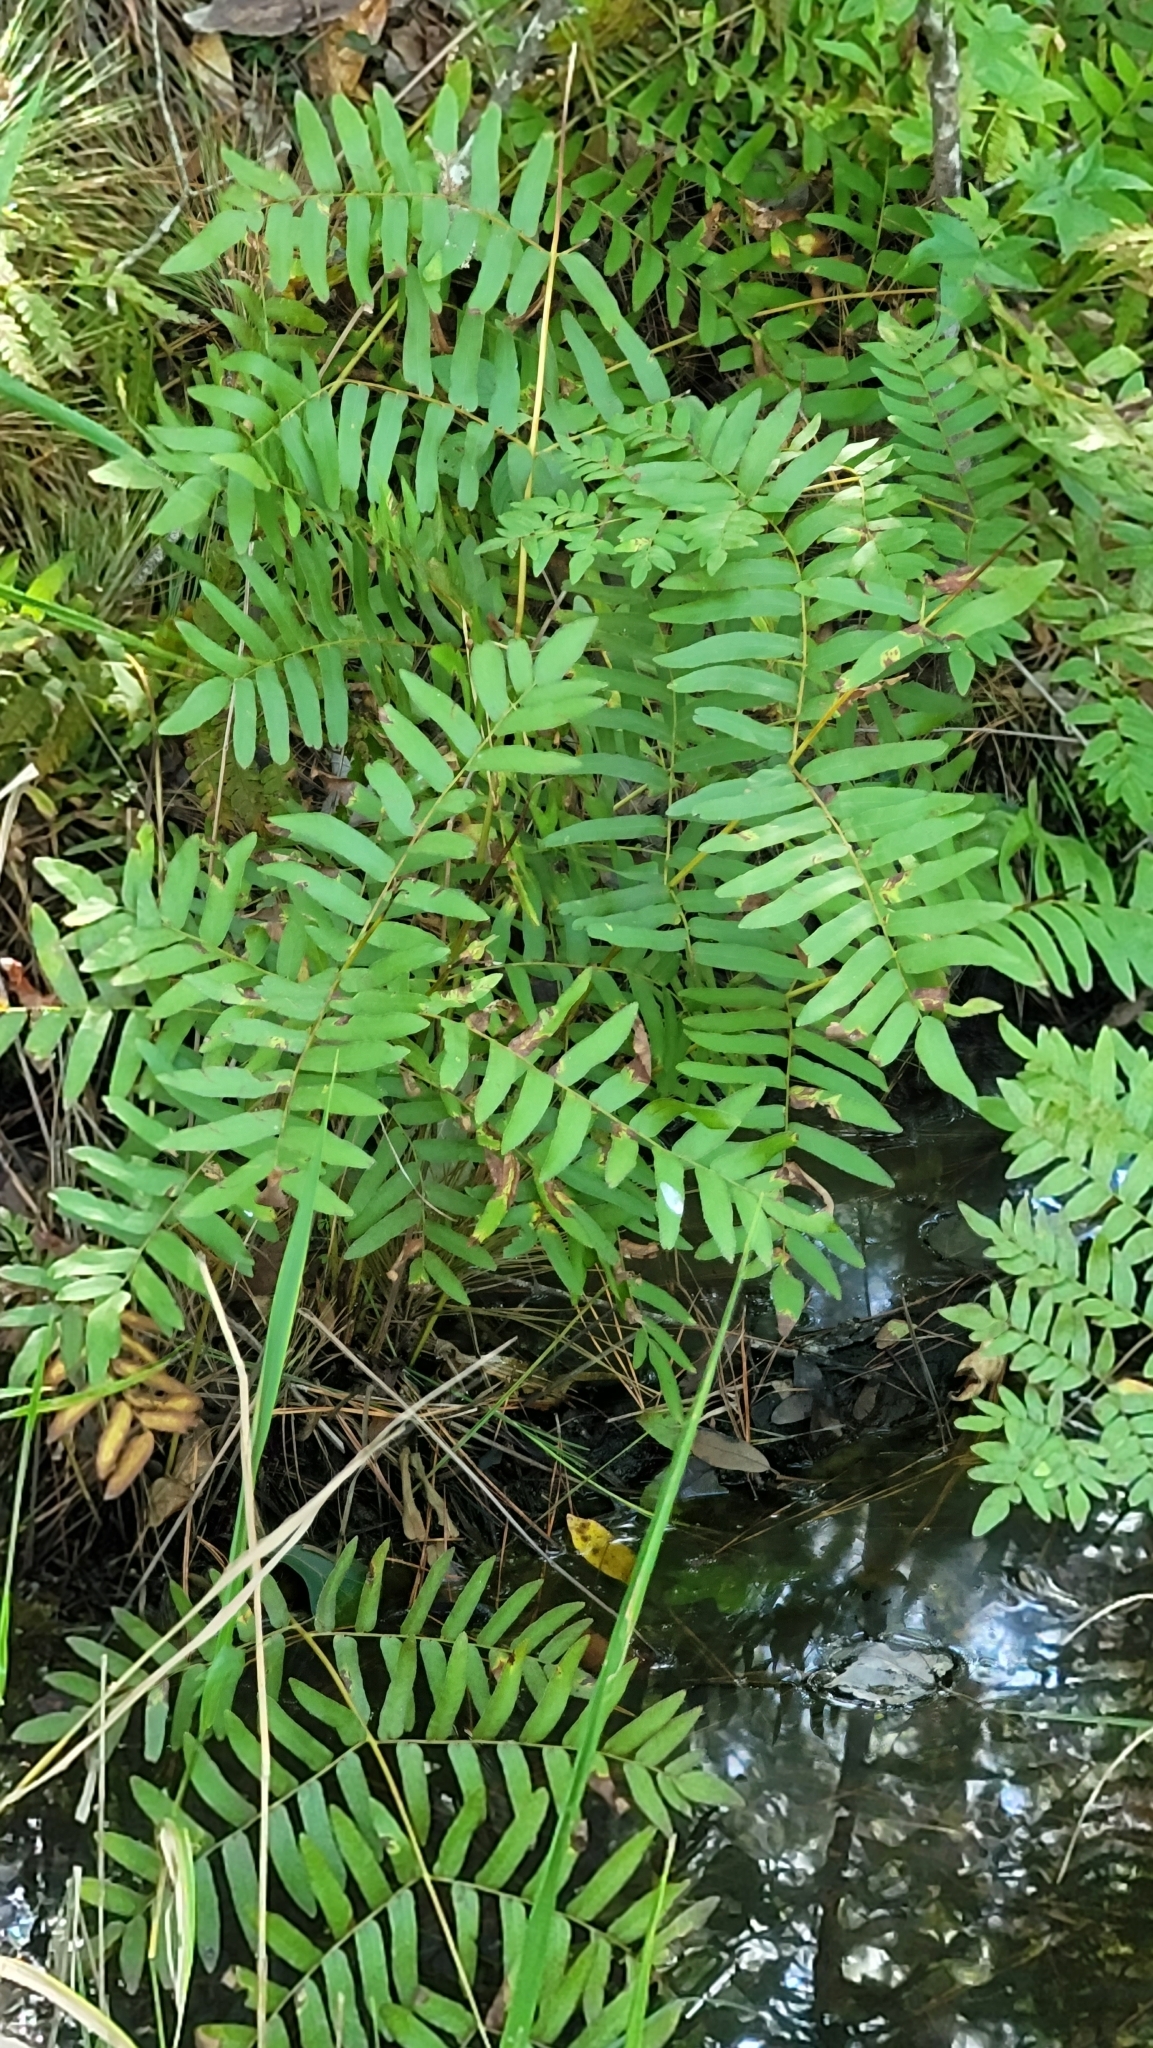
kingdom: Plantae
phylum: Tracheophyta
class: Polypodiopsida
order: Osmundales
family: Osmundaceae
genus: Osmunda
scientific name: Osmunda spectabilis
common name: American royal fern
